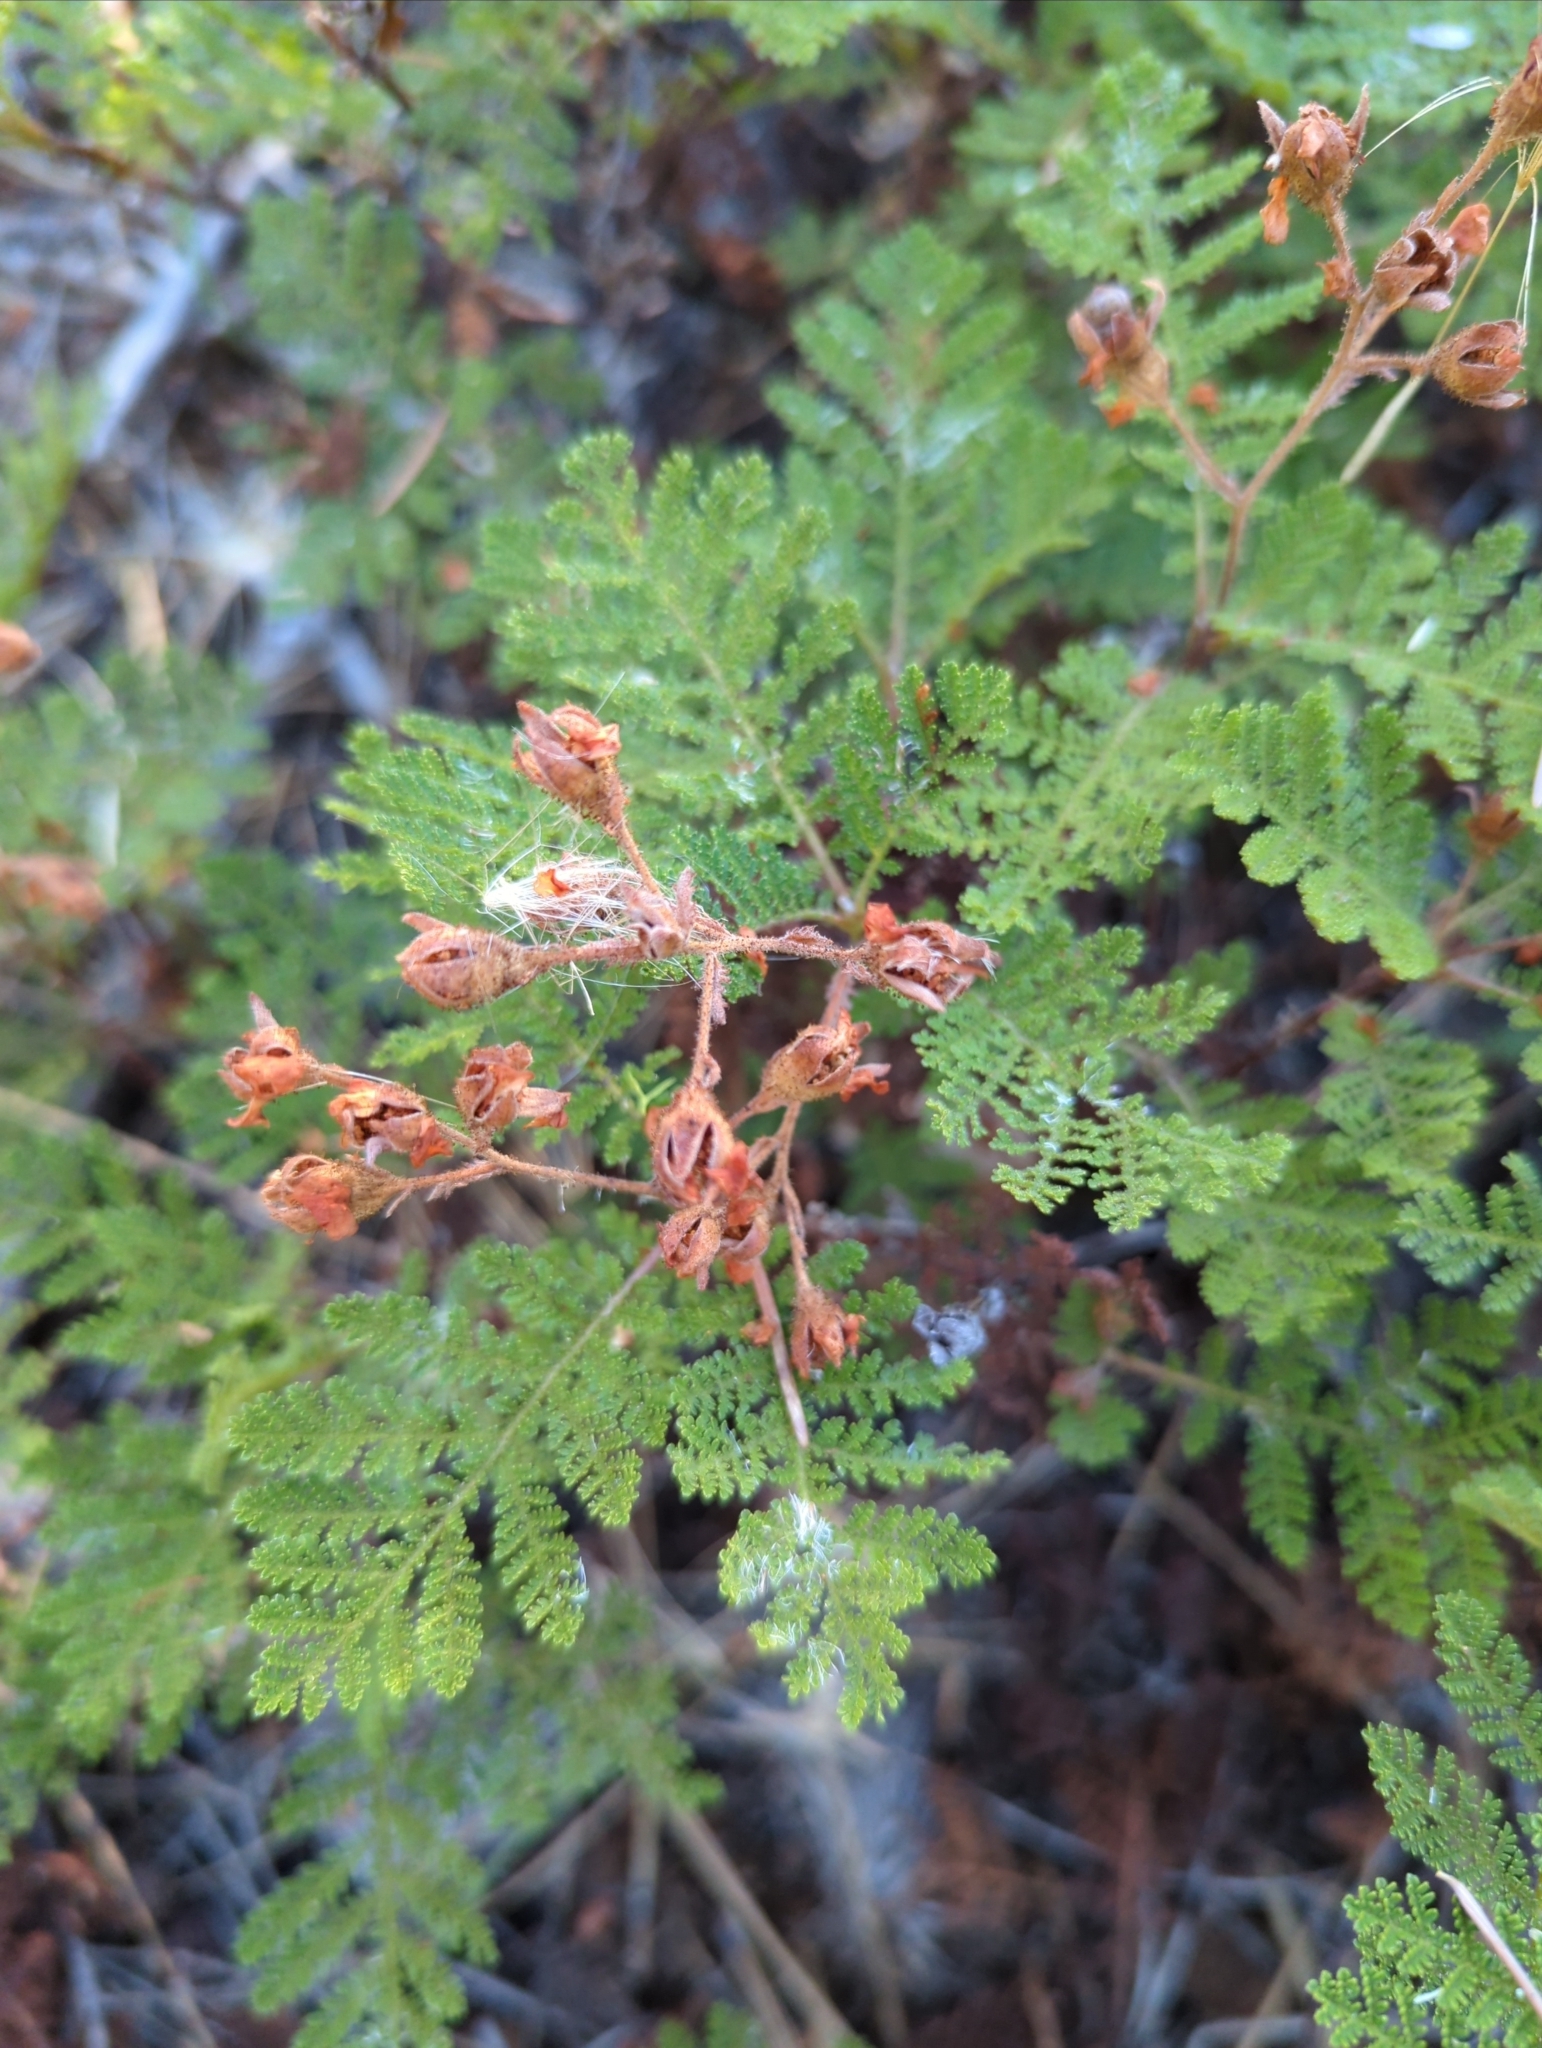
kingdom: Plantae
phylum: Tracheophyta
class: Magnoliopsida
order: Rosales
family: Rosaceae
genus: Chamaebatia
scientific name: Chamaebatia foliolosa
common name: Mountain misery
